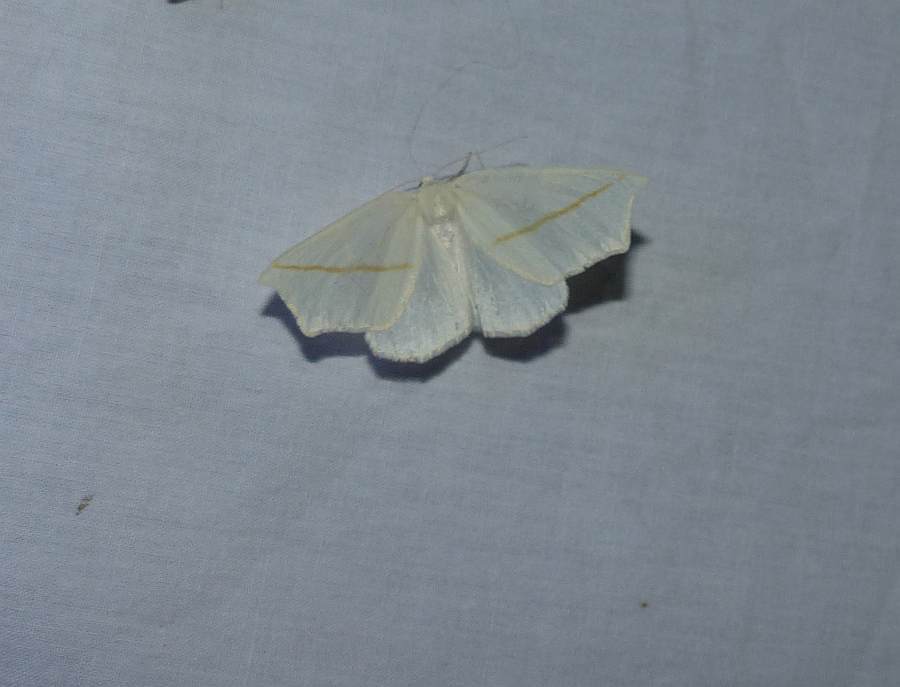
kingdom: Animalia
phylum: Arthropoda
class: Insecta
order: Lepidoptera
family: Geometridae
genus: Tetracis
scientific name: Tetracis cachexiata
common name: White slant-line
